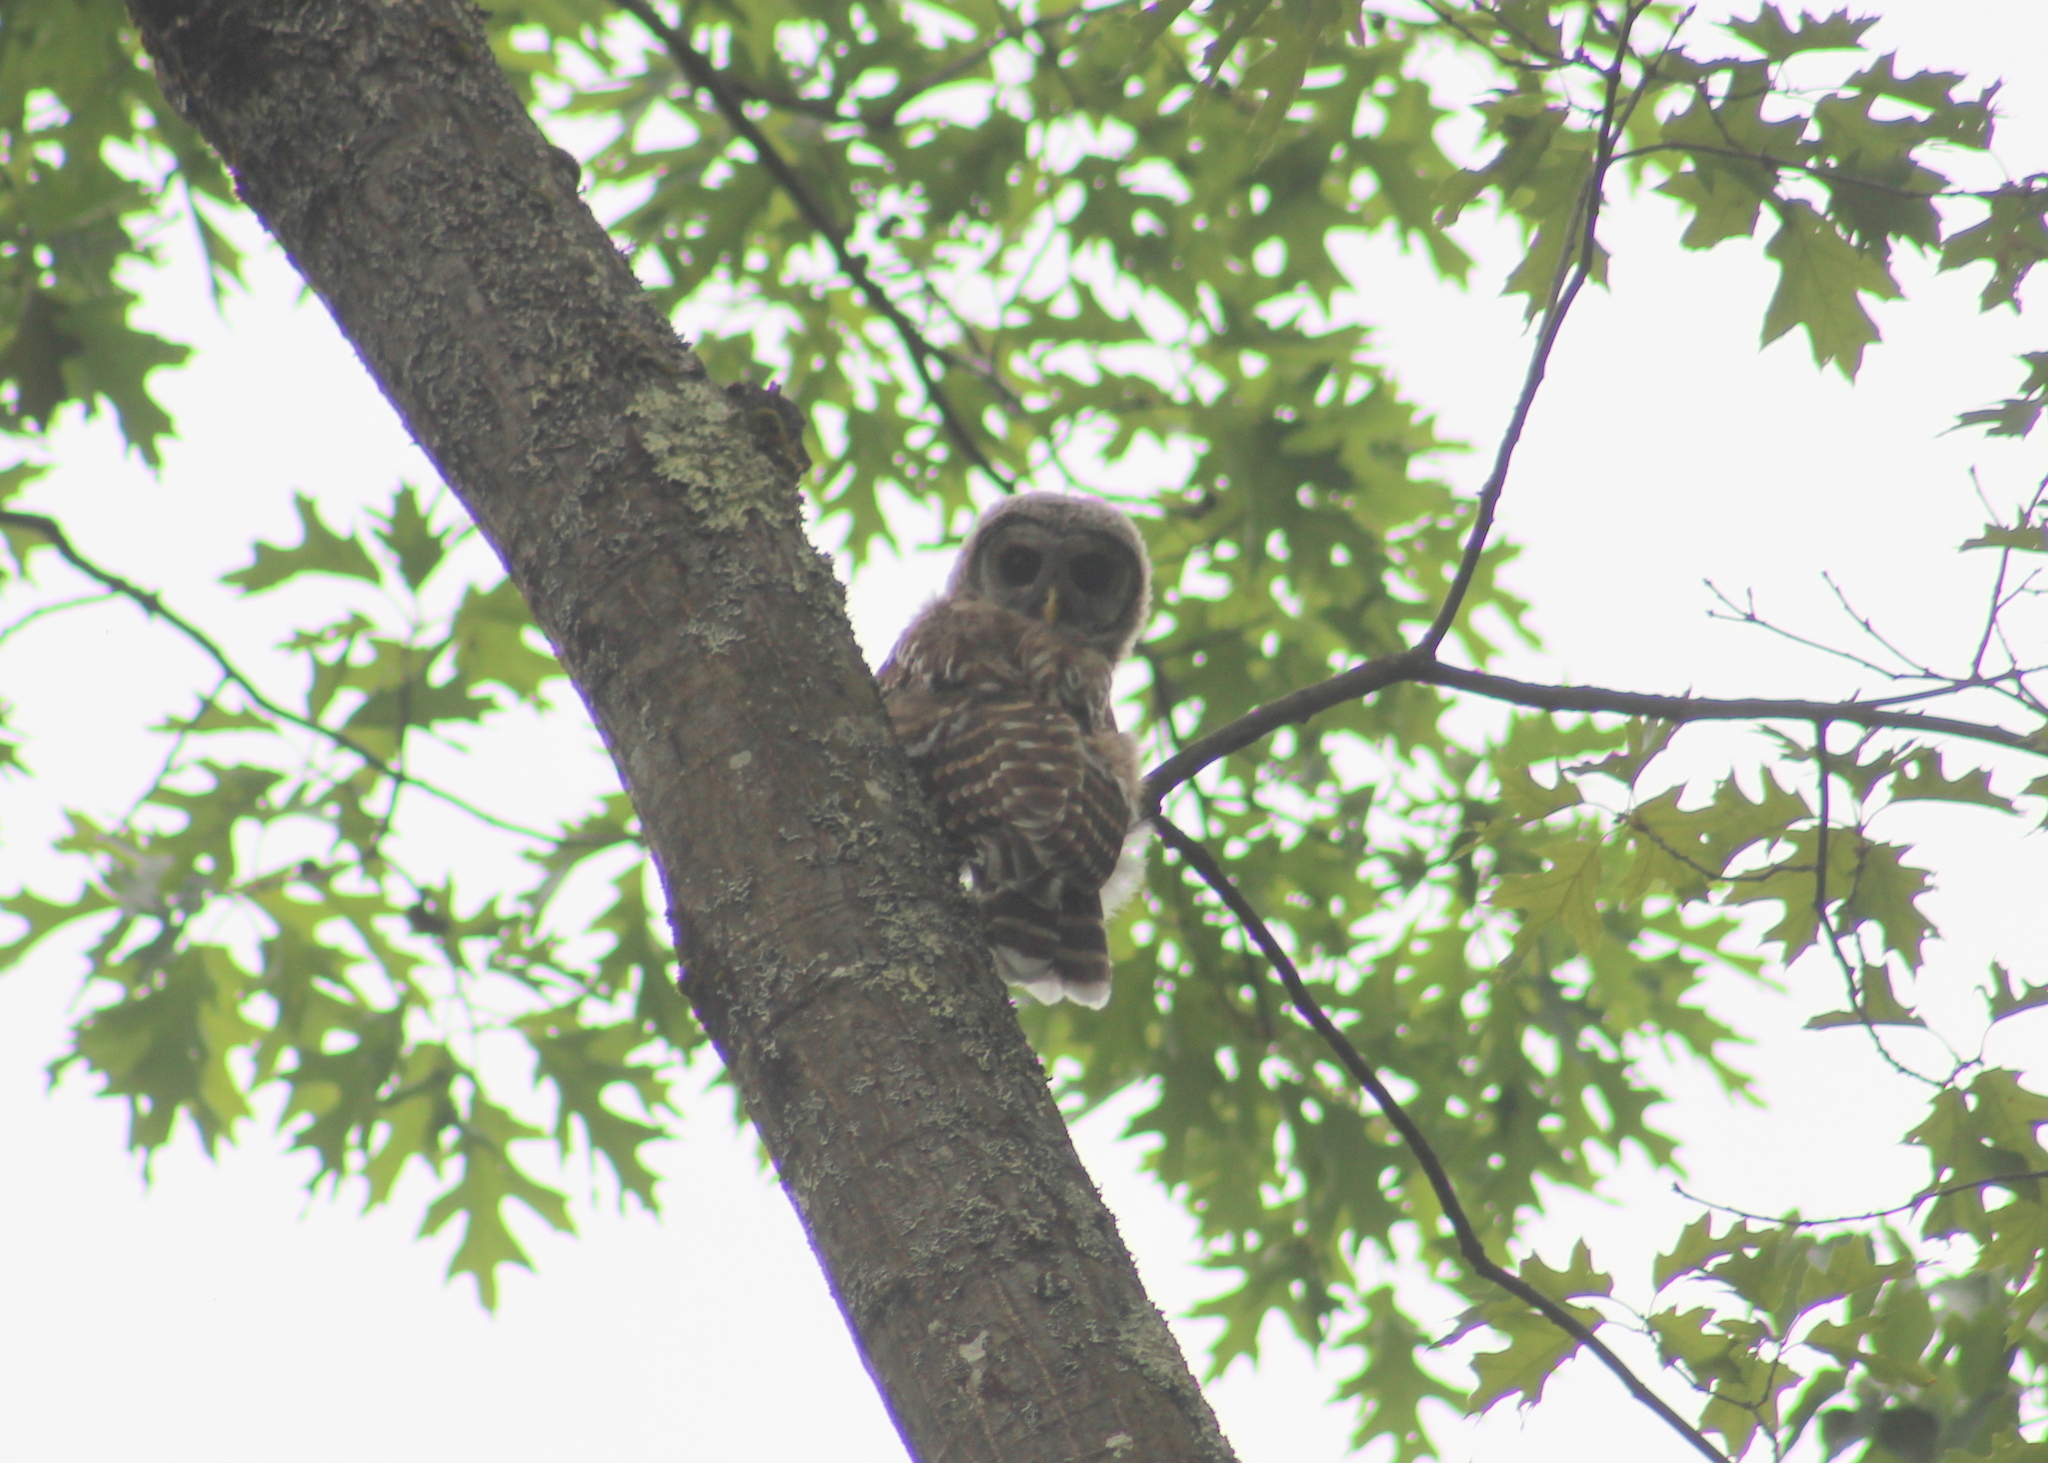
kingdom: Animalia
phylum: Chordata
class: Aves
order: Strigiformes
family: Strigidae
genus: Strix
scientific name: Strix varia
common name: Barred owl
